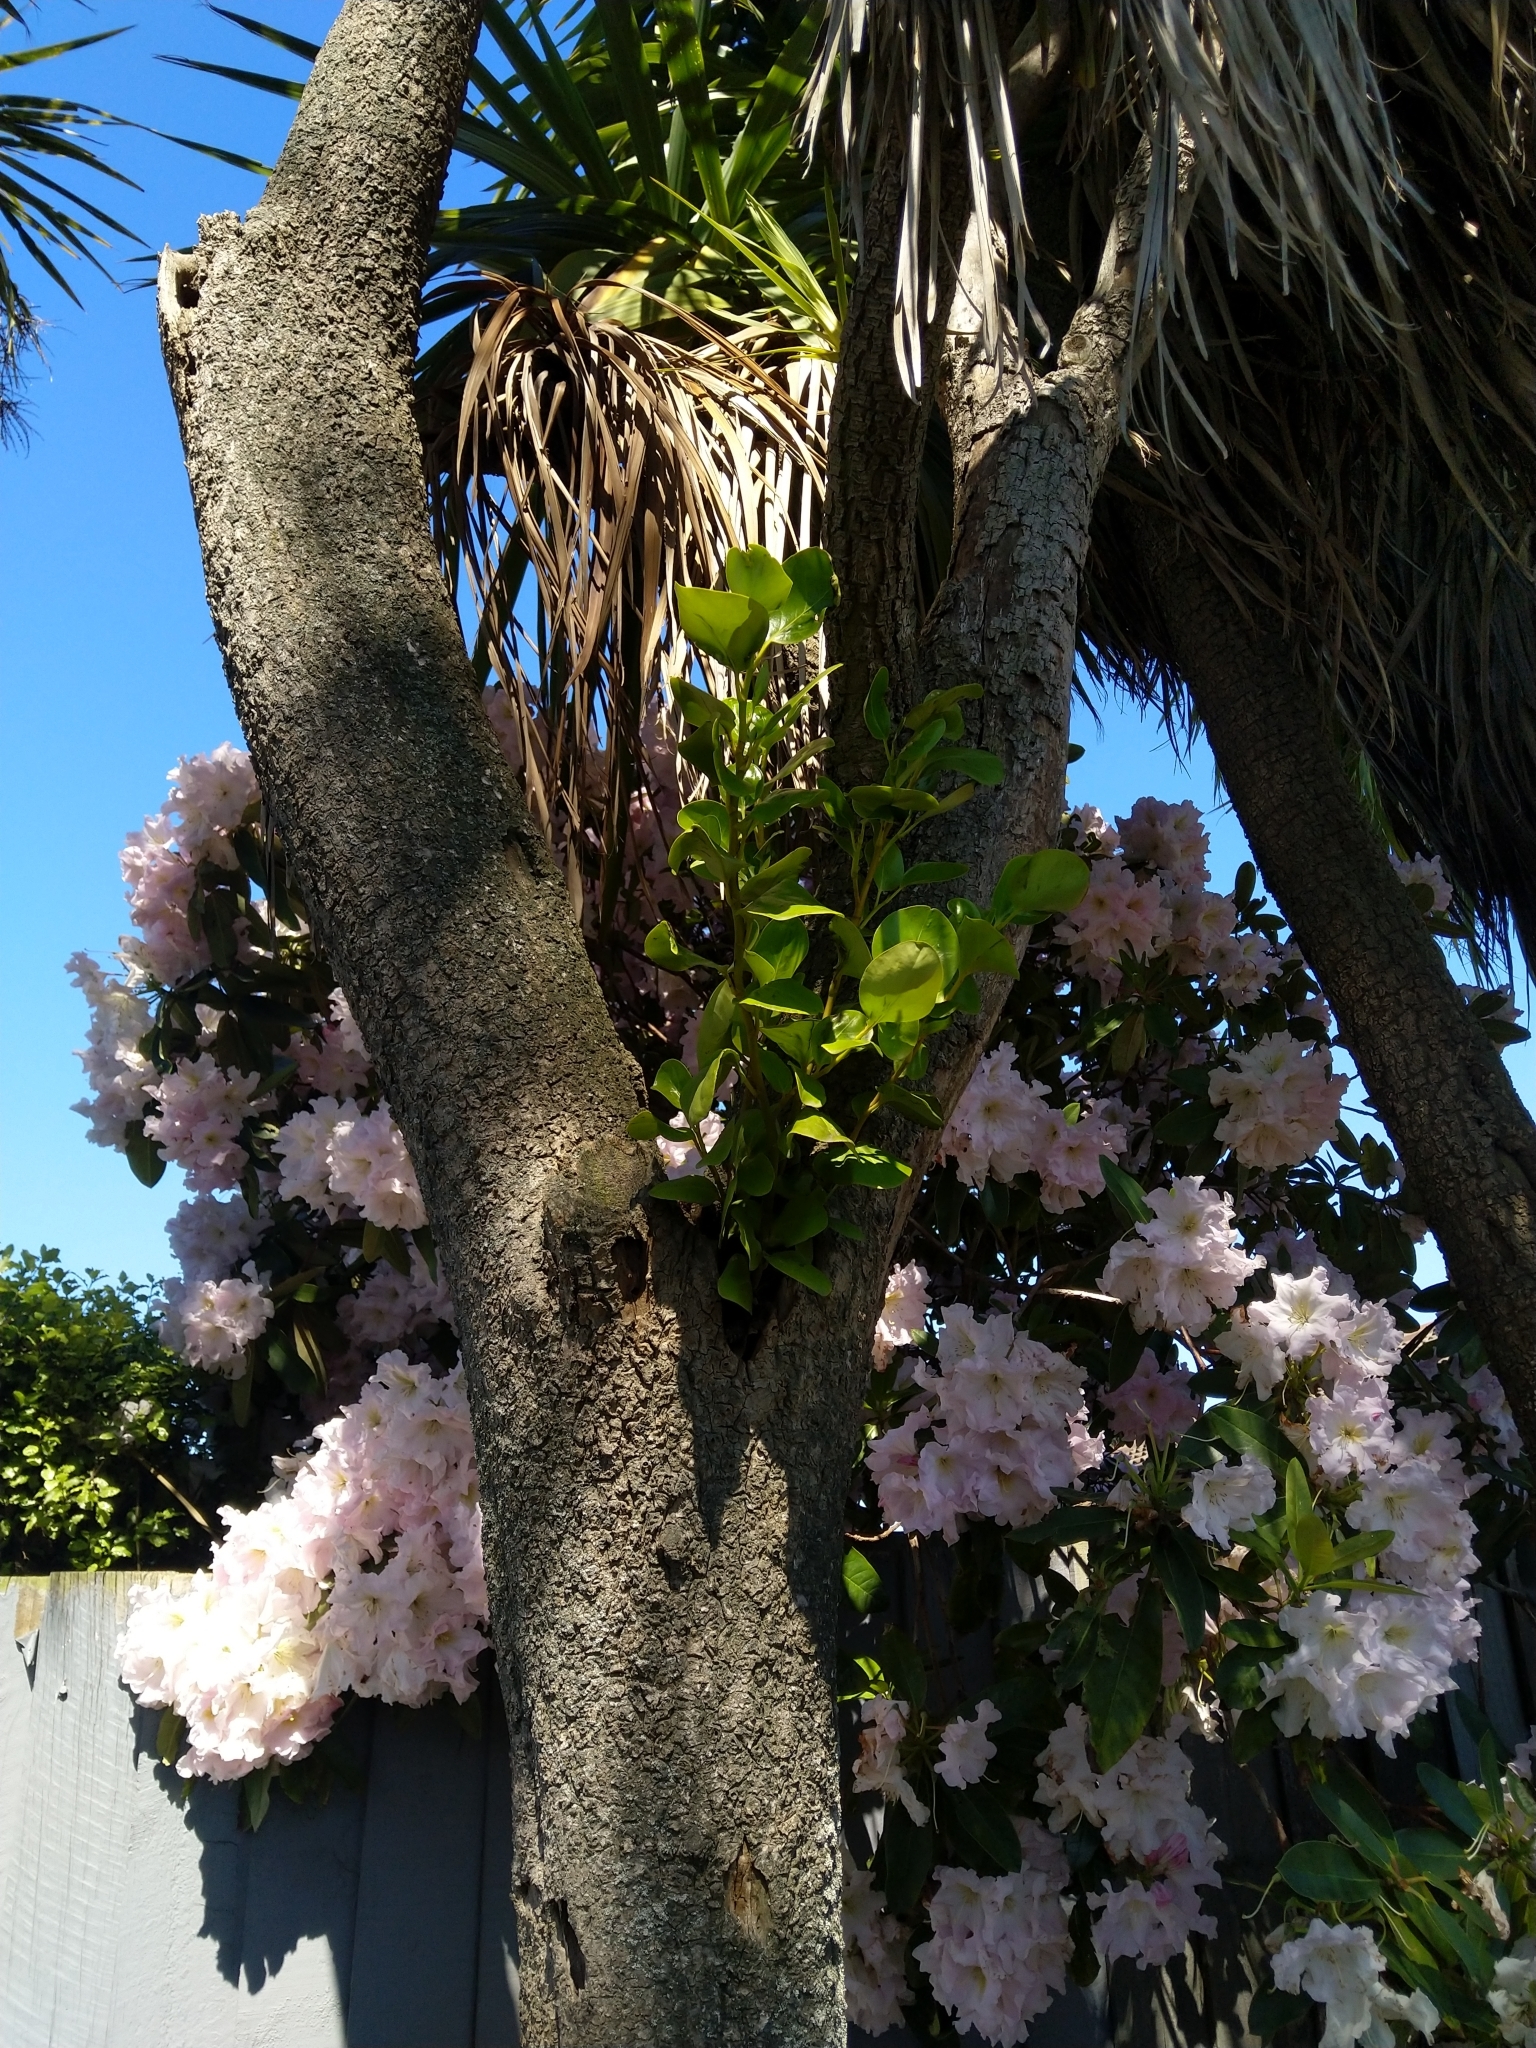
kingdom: Plantae
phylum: Tracheophyta
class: Magnoliopsida
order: Apiales
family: Griseliniaceae
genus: Griselinia
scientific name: Griselinia littoralis
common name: New zealand broadleaf
